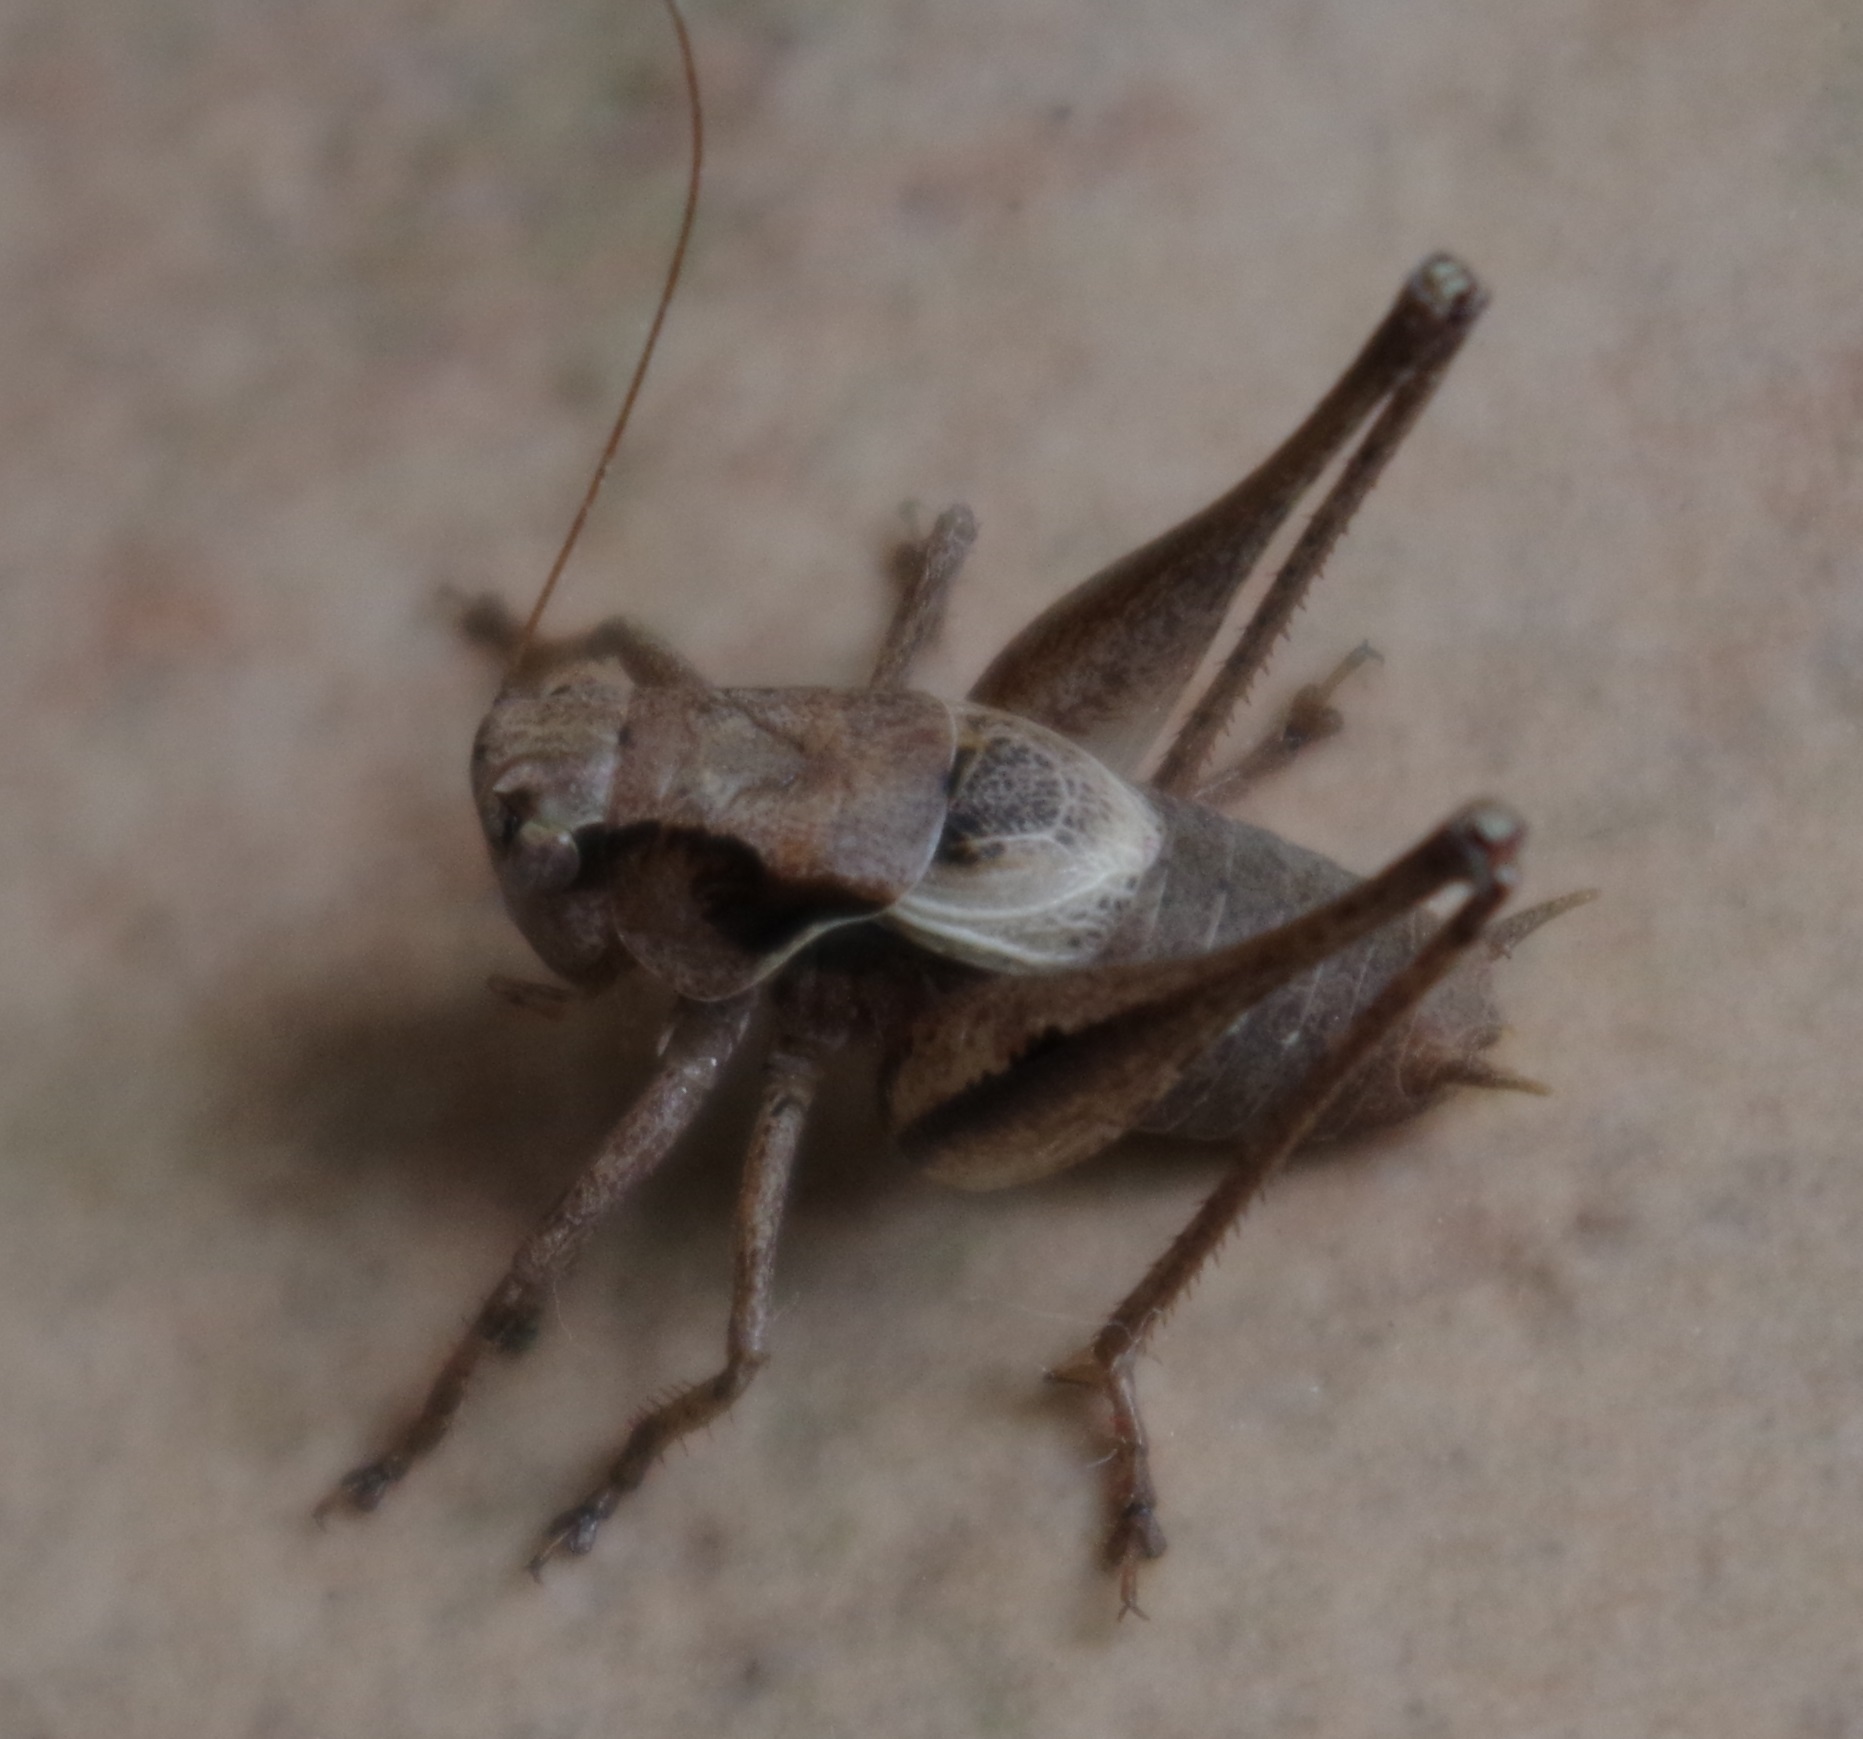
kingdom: Animalia
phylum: Arthropoda
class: Insecta
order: Orthoptera
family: Tettigoniidae
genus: Pholidoptera
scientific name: Pholidoptera griseoaptera
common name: Dark bush-cricket
